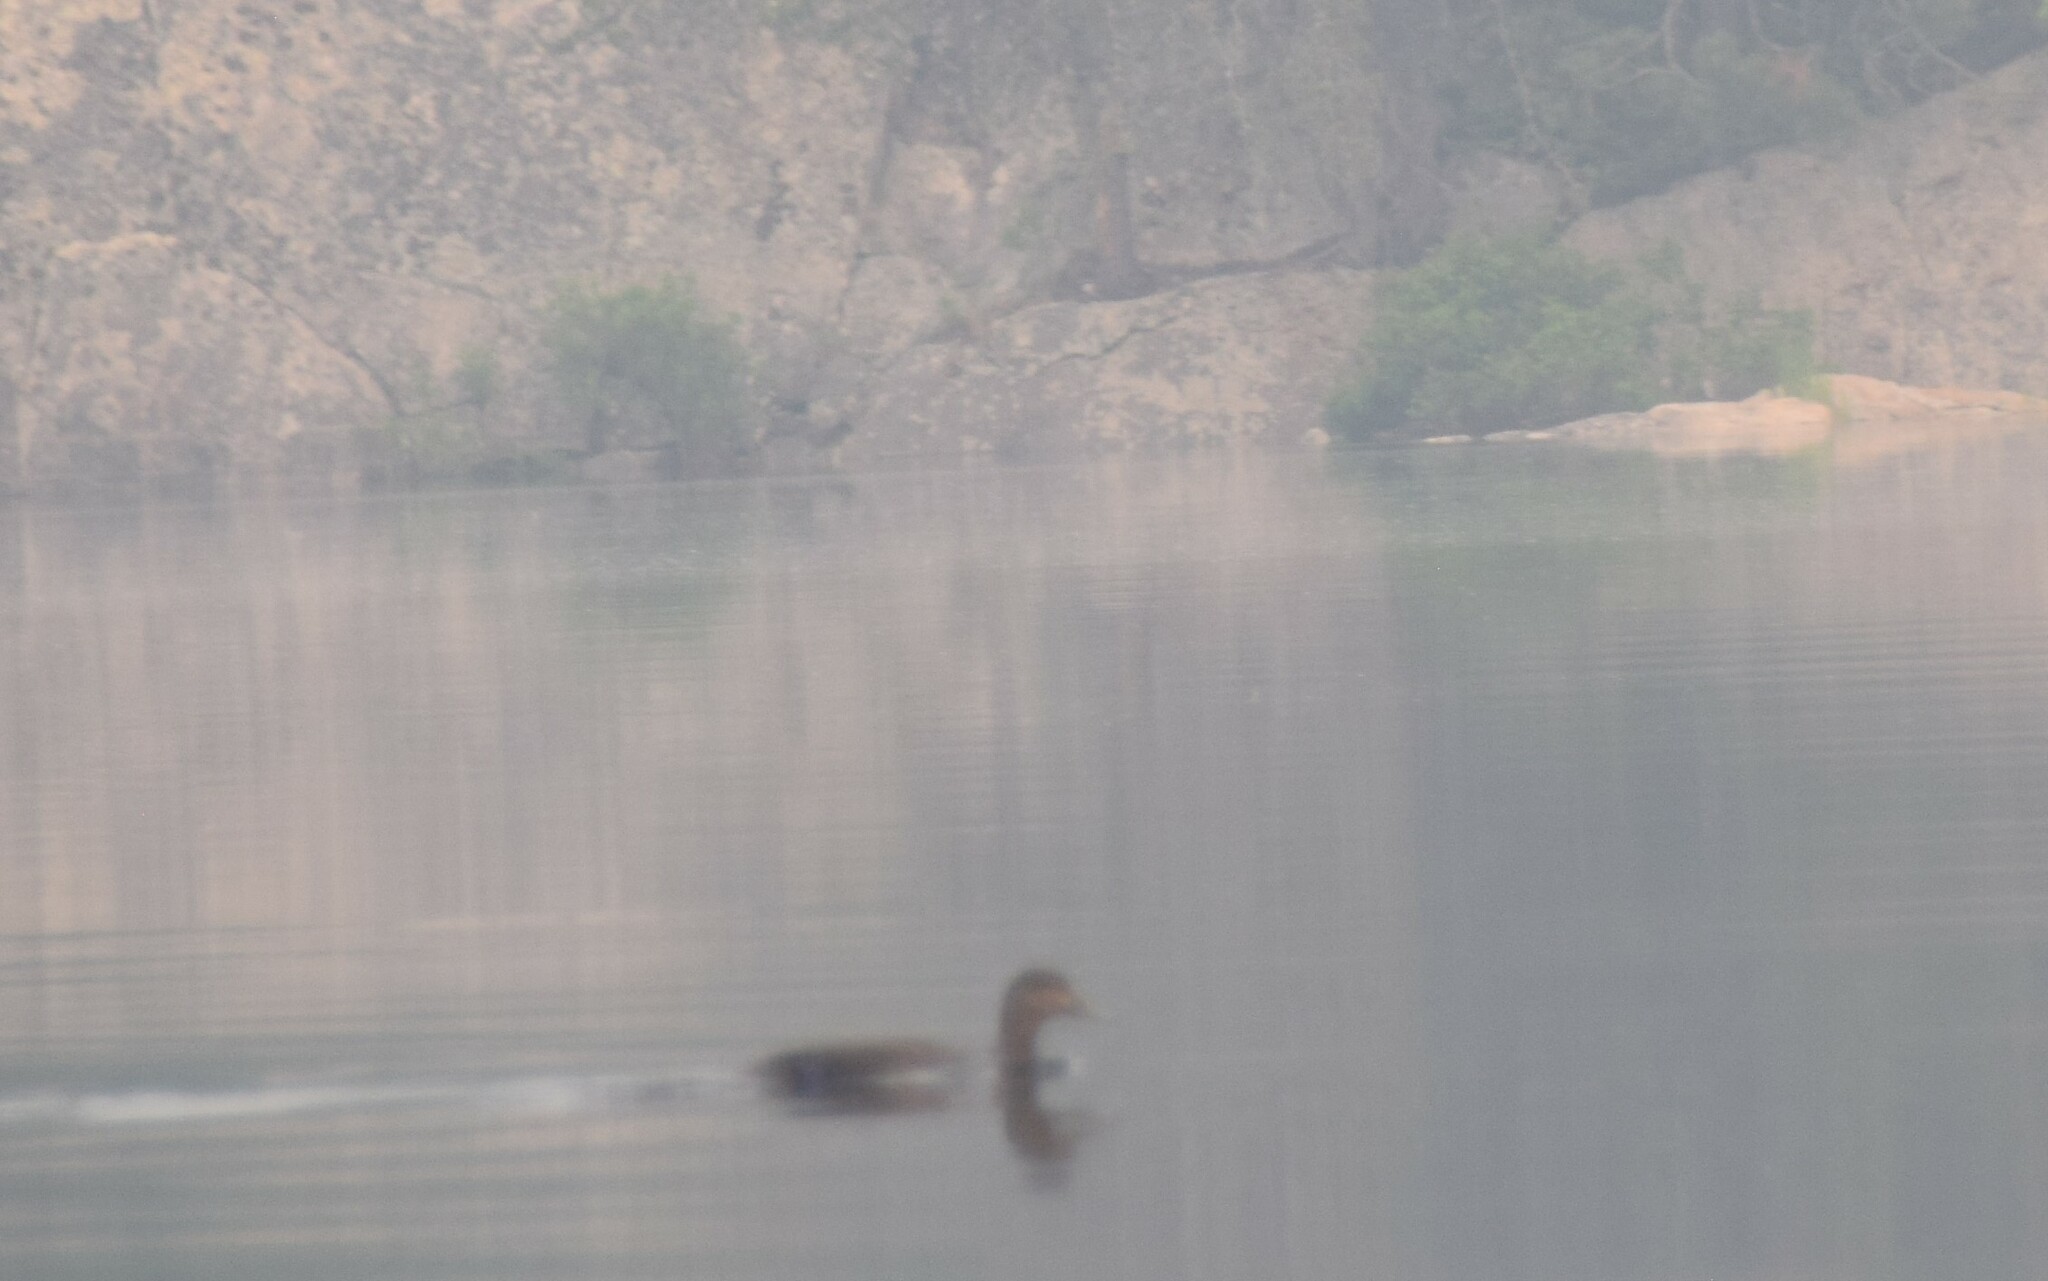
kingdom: Animalia
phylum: Chordata
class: Aves
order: Anseriformes
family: Anatidae
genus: Anas
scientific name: Anas rubripes
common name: American black duck
